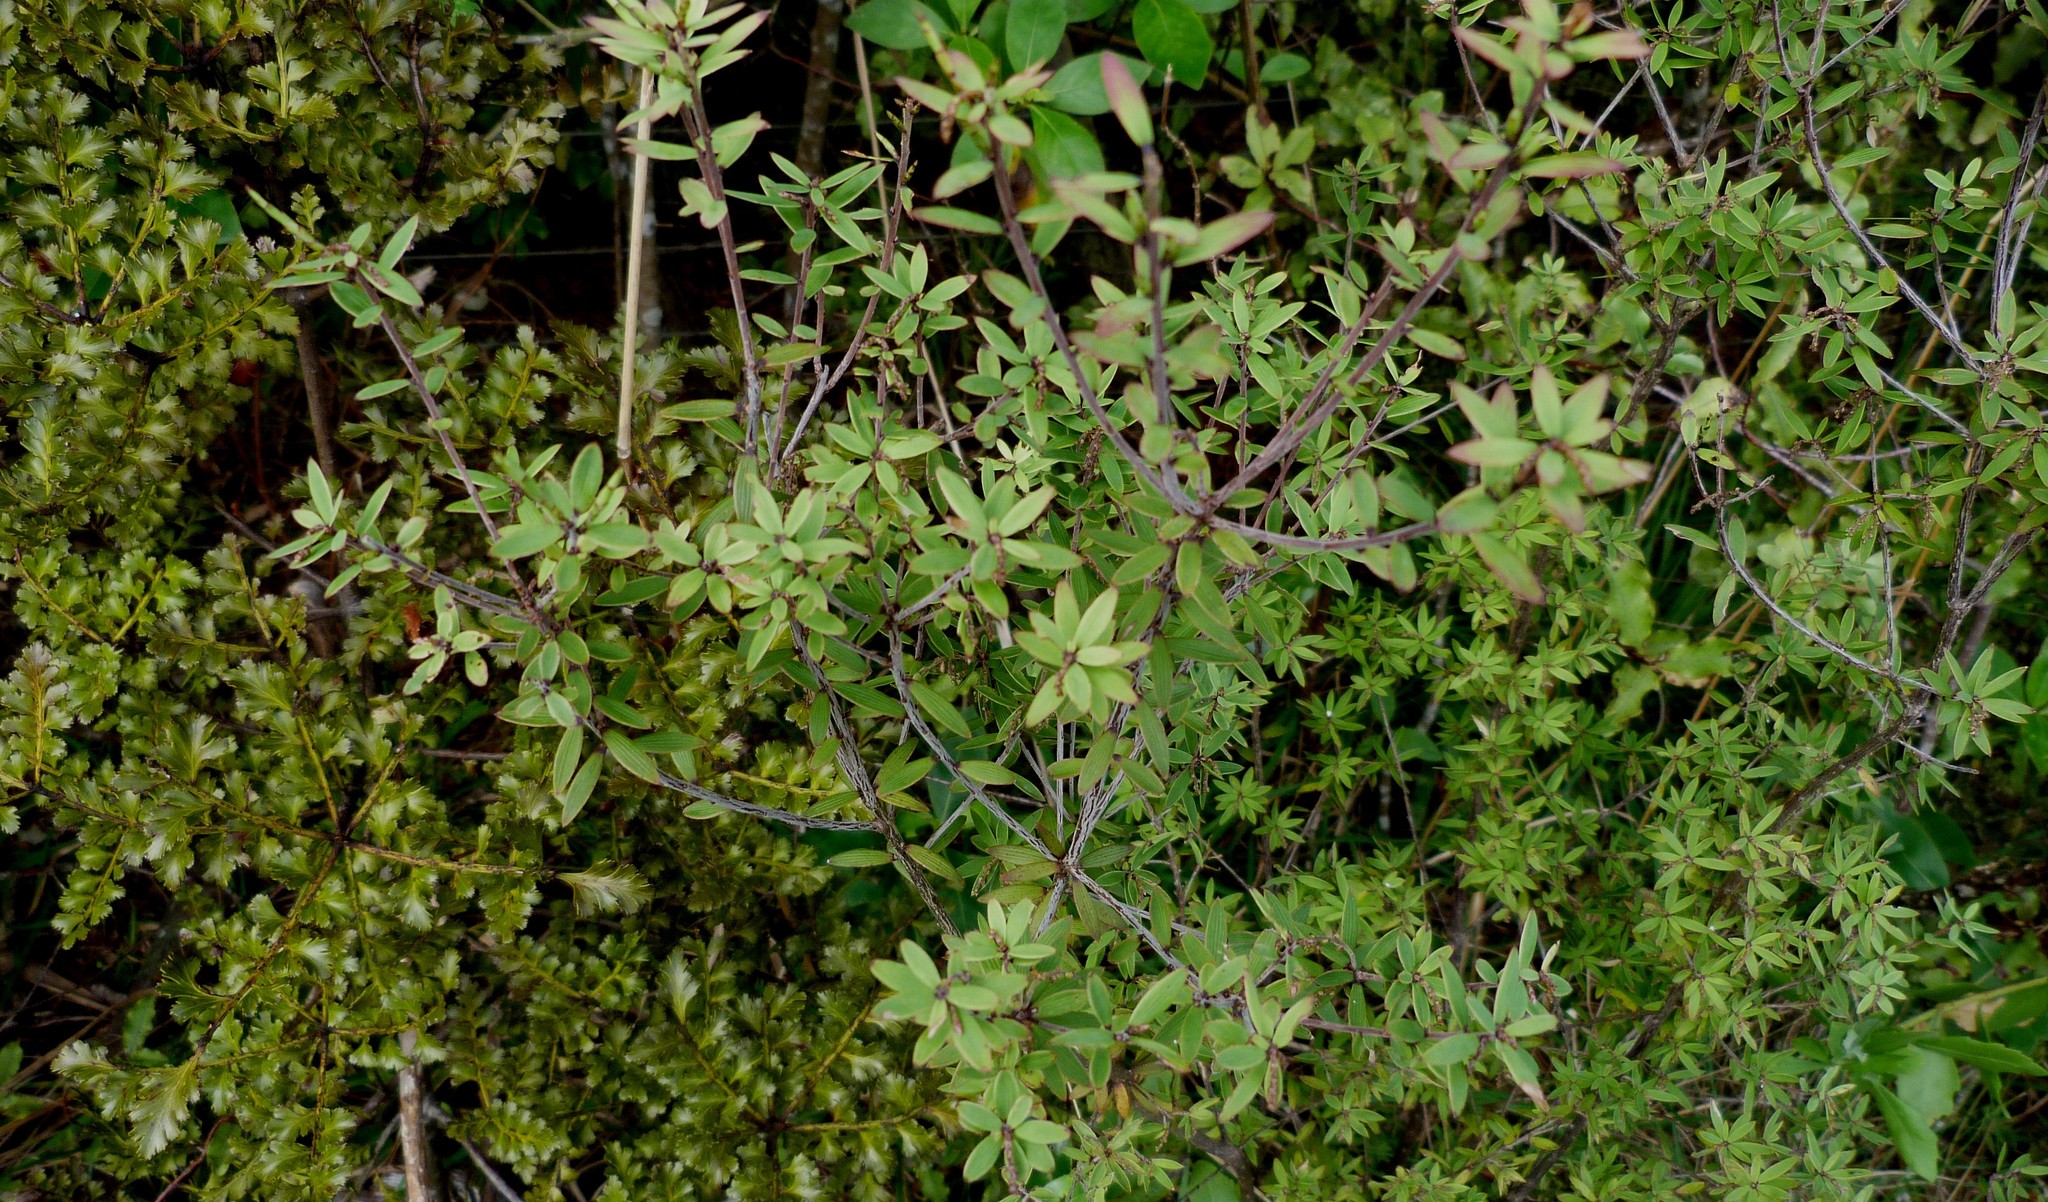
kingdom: Plantae
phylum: Tracheophyta
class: Magnoliopsida
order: Ericales
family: Ericaceae
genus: Leucopogon
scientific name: Leucopogon fasciculatus
